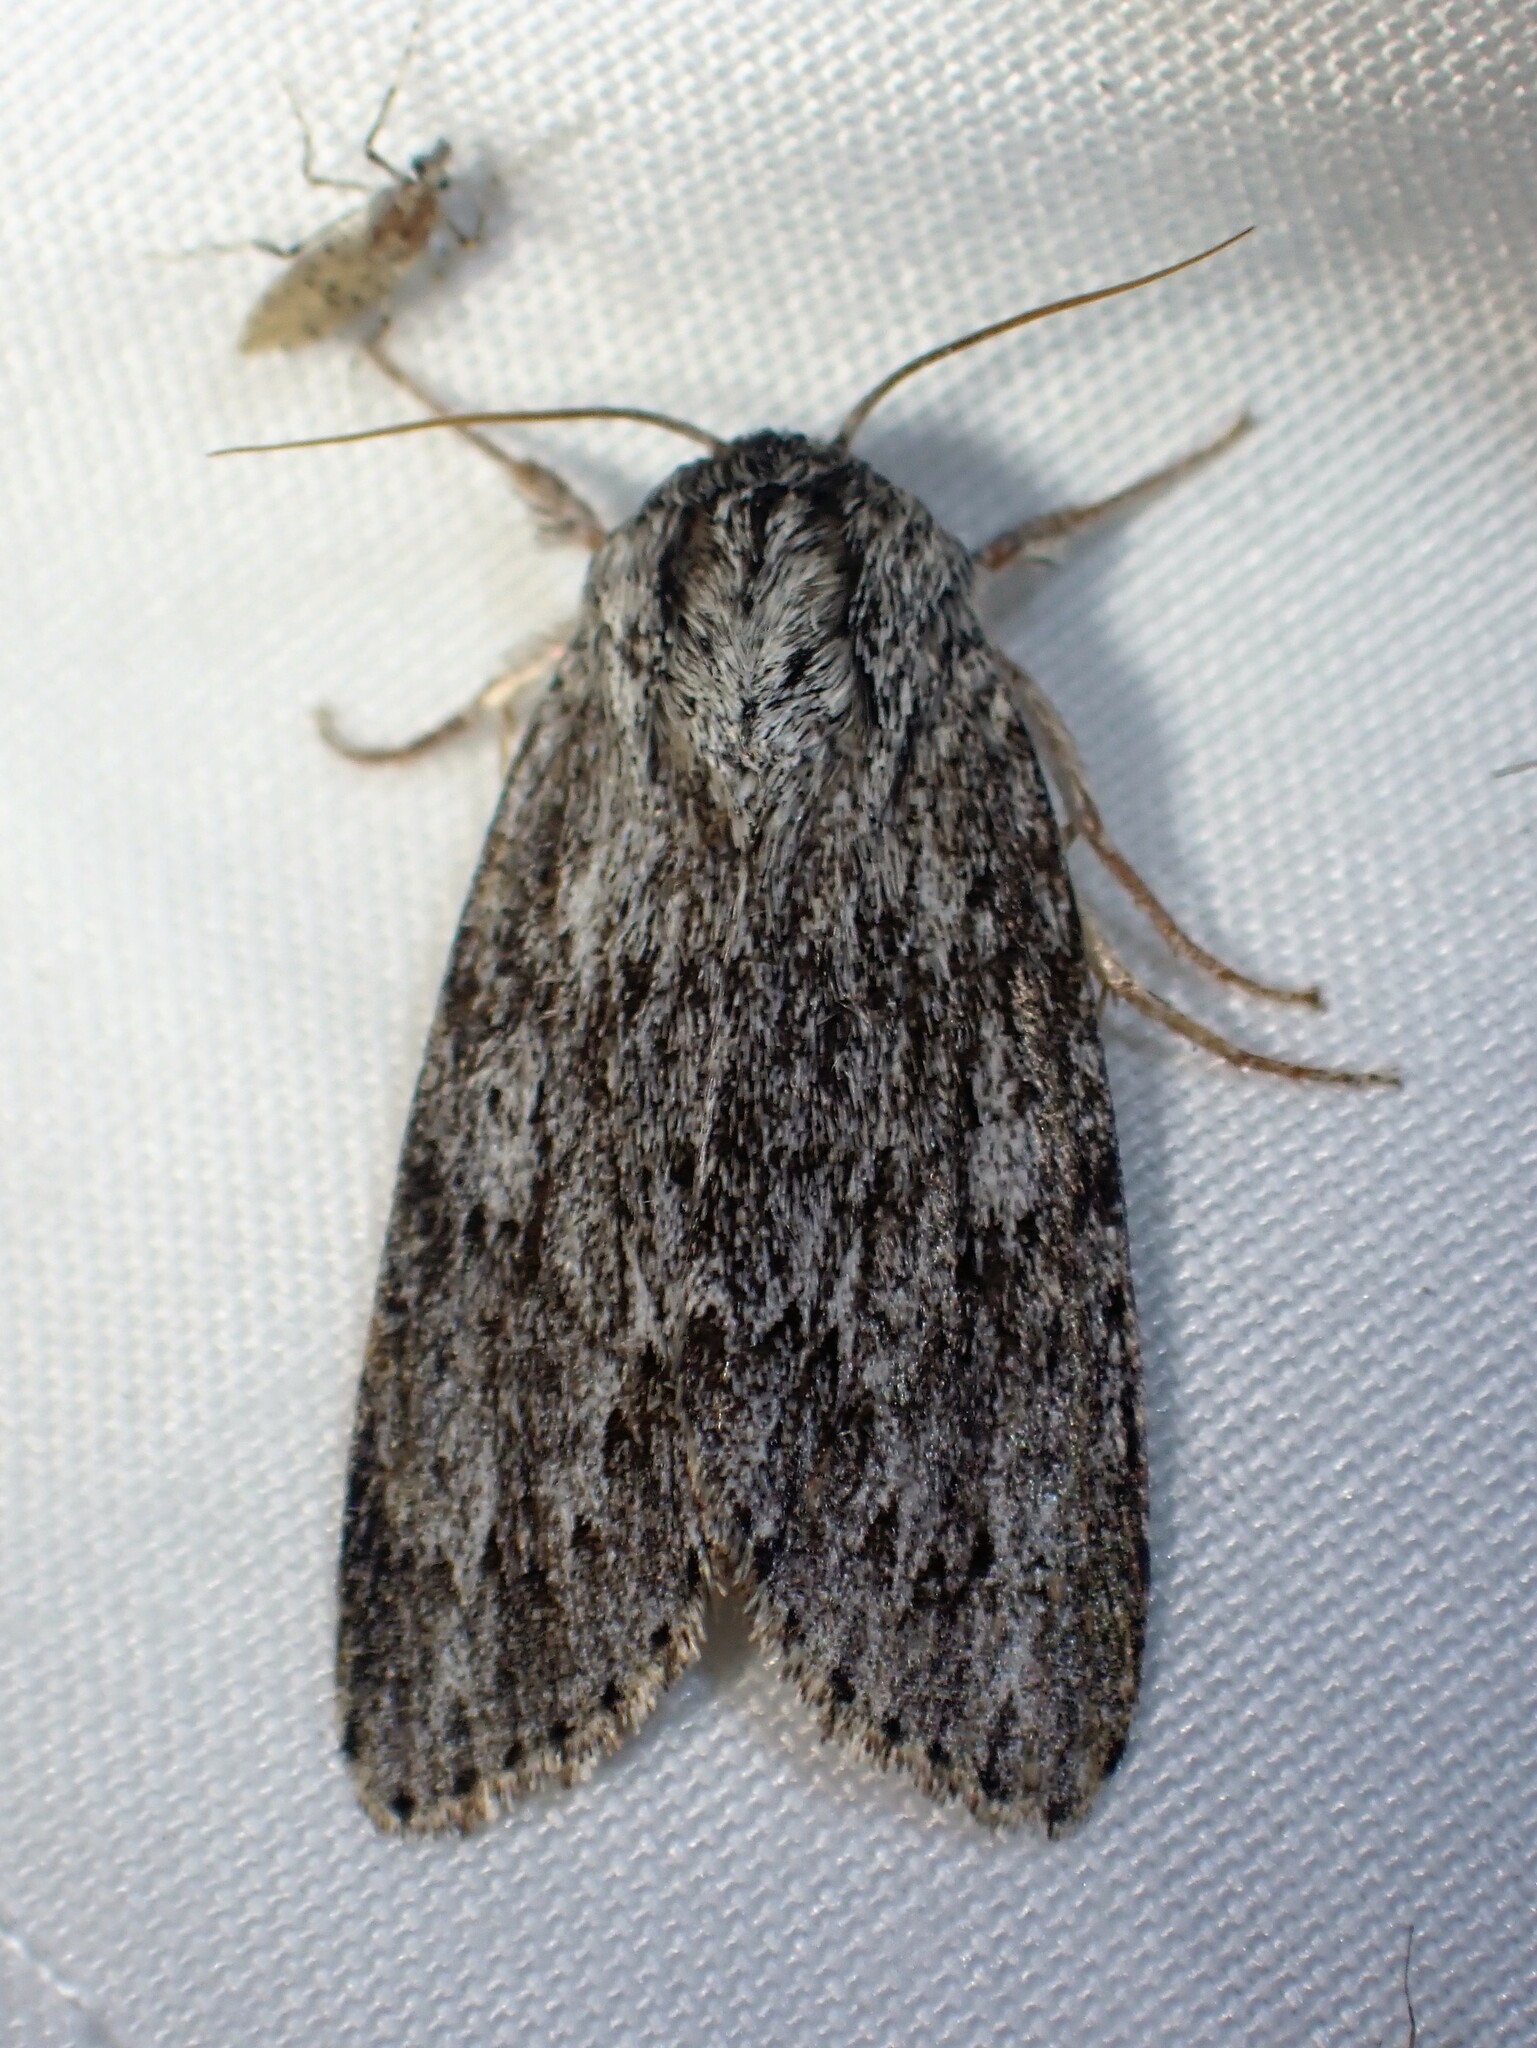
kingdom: Animalia
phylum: Arthropoda
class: Insecta
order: Lepidoptera
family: Noctuidae
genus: Acronicta
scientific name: Acronicta oblinita
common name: Smeared dagger
